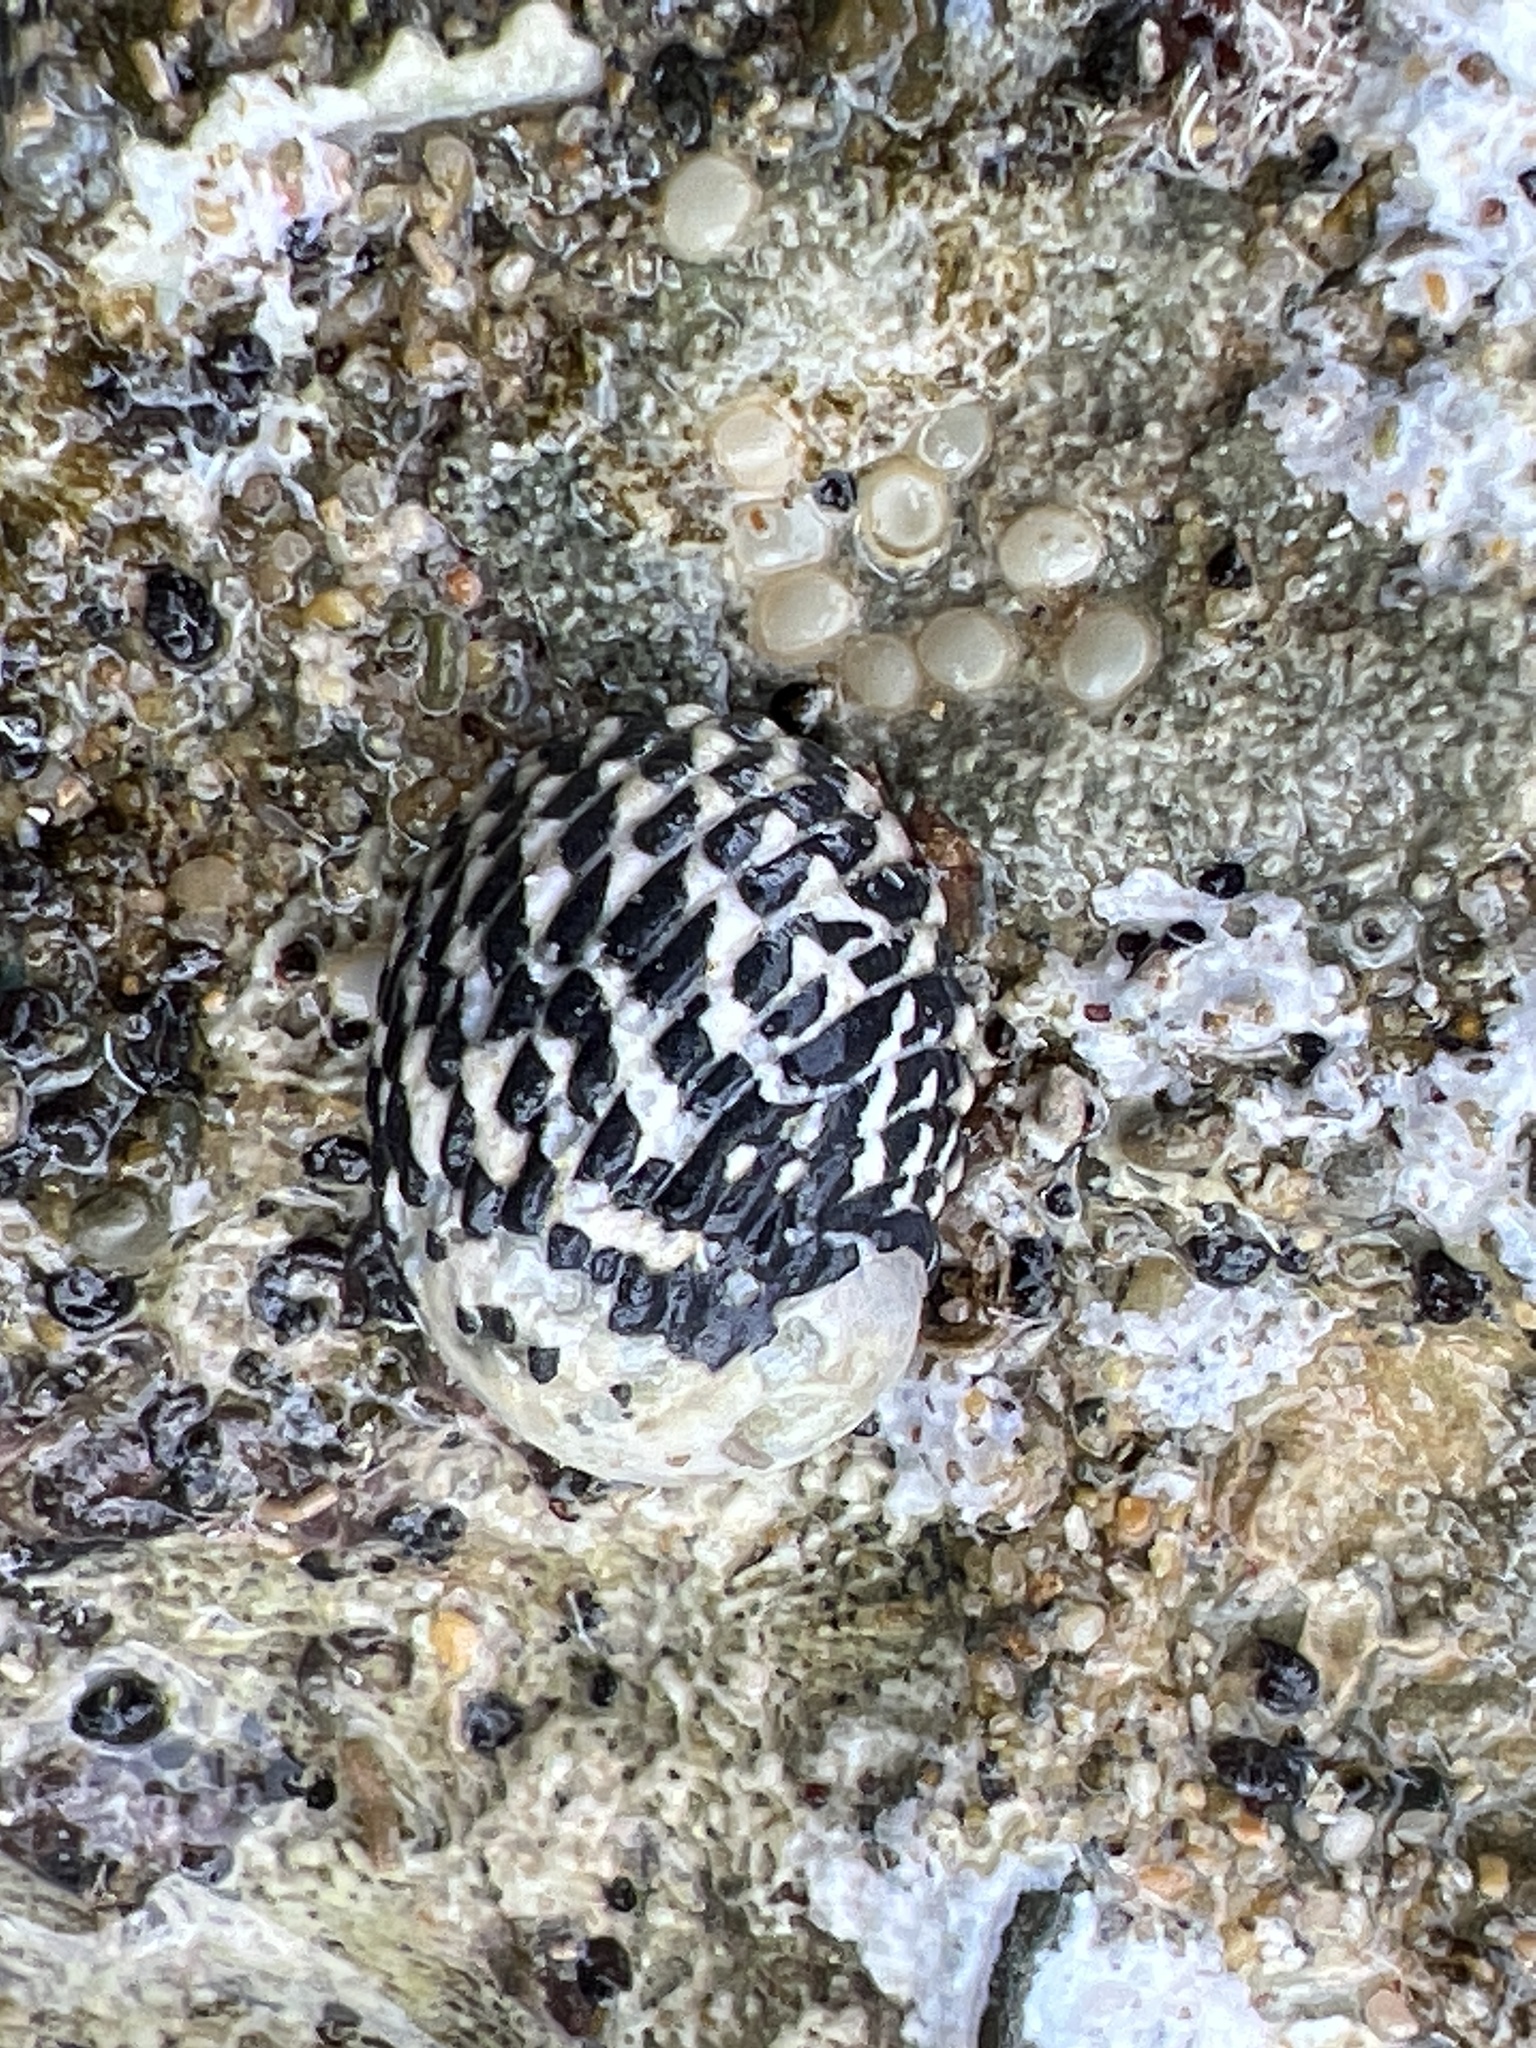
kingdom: Animalia
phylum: Mollusca
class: Gastropoda
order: Cycloneritida
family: Neritidae
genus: Nerita
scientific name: Nerita tessellata
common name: Checkered nerite
